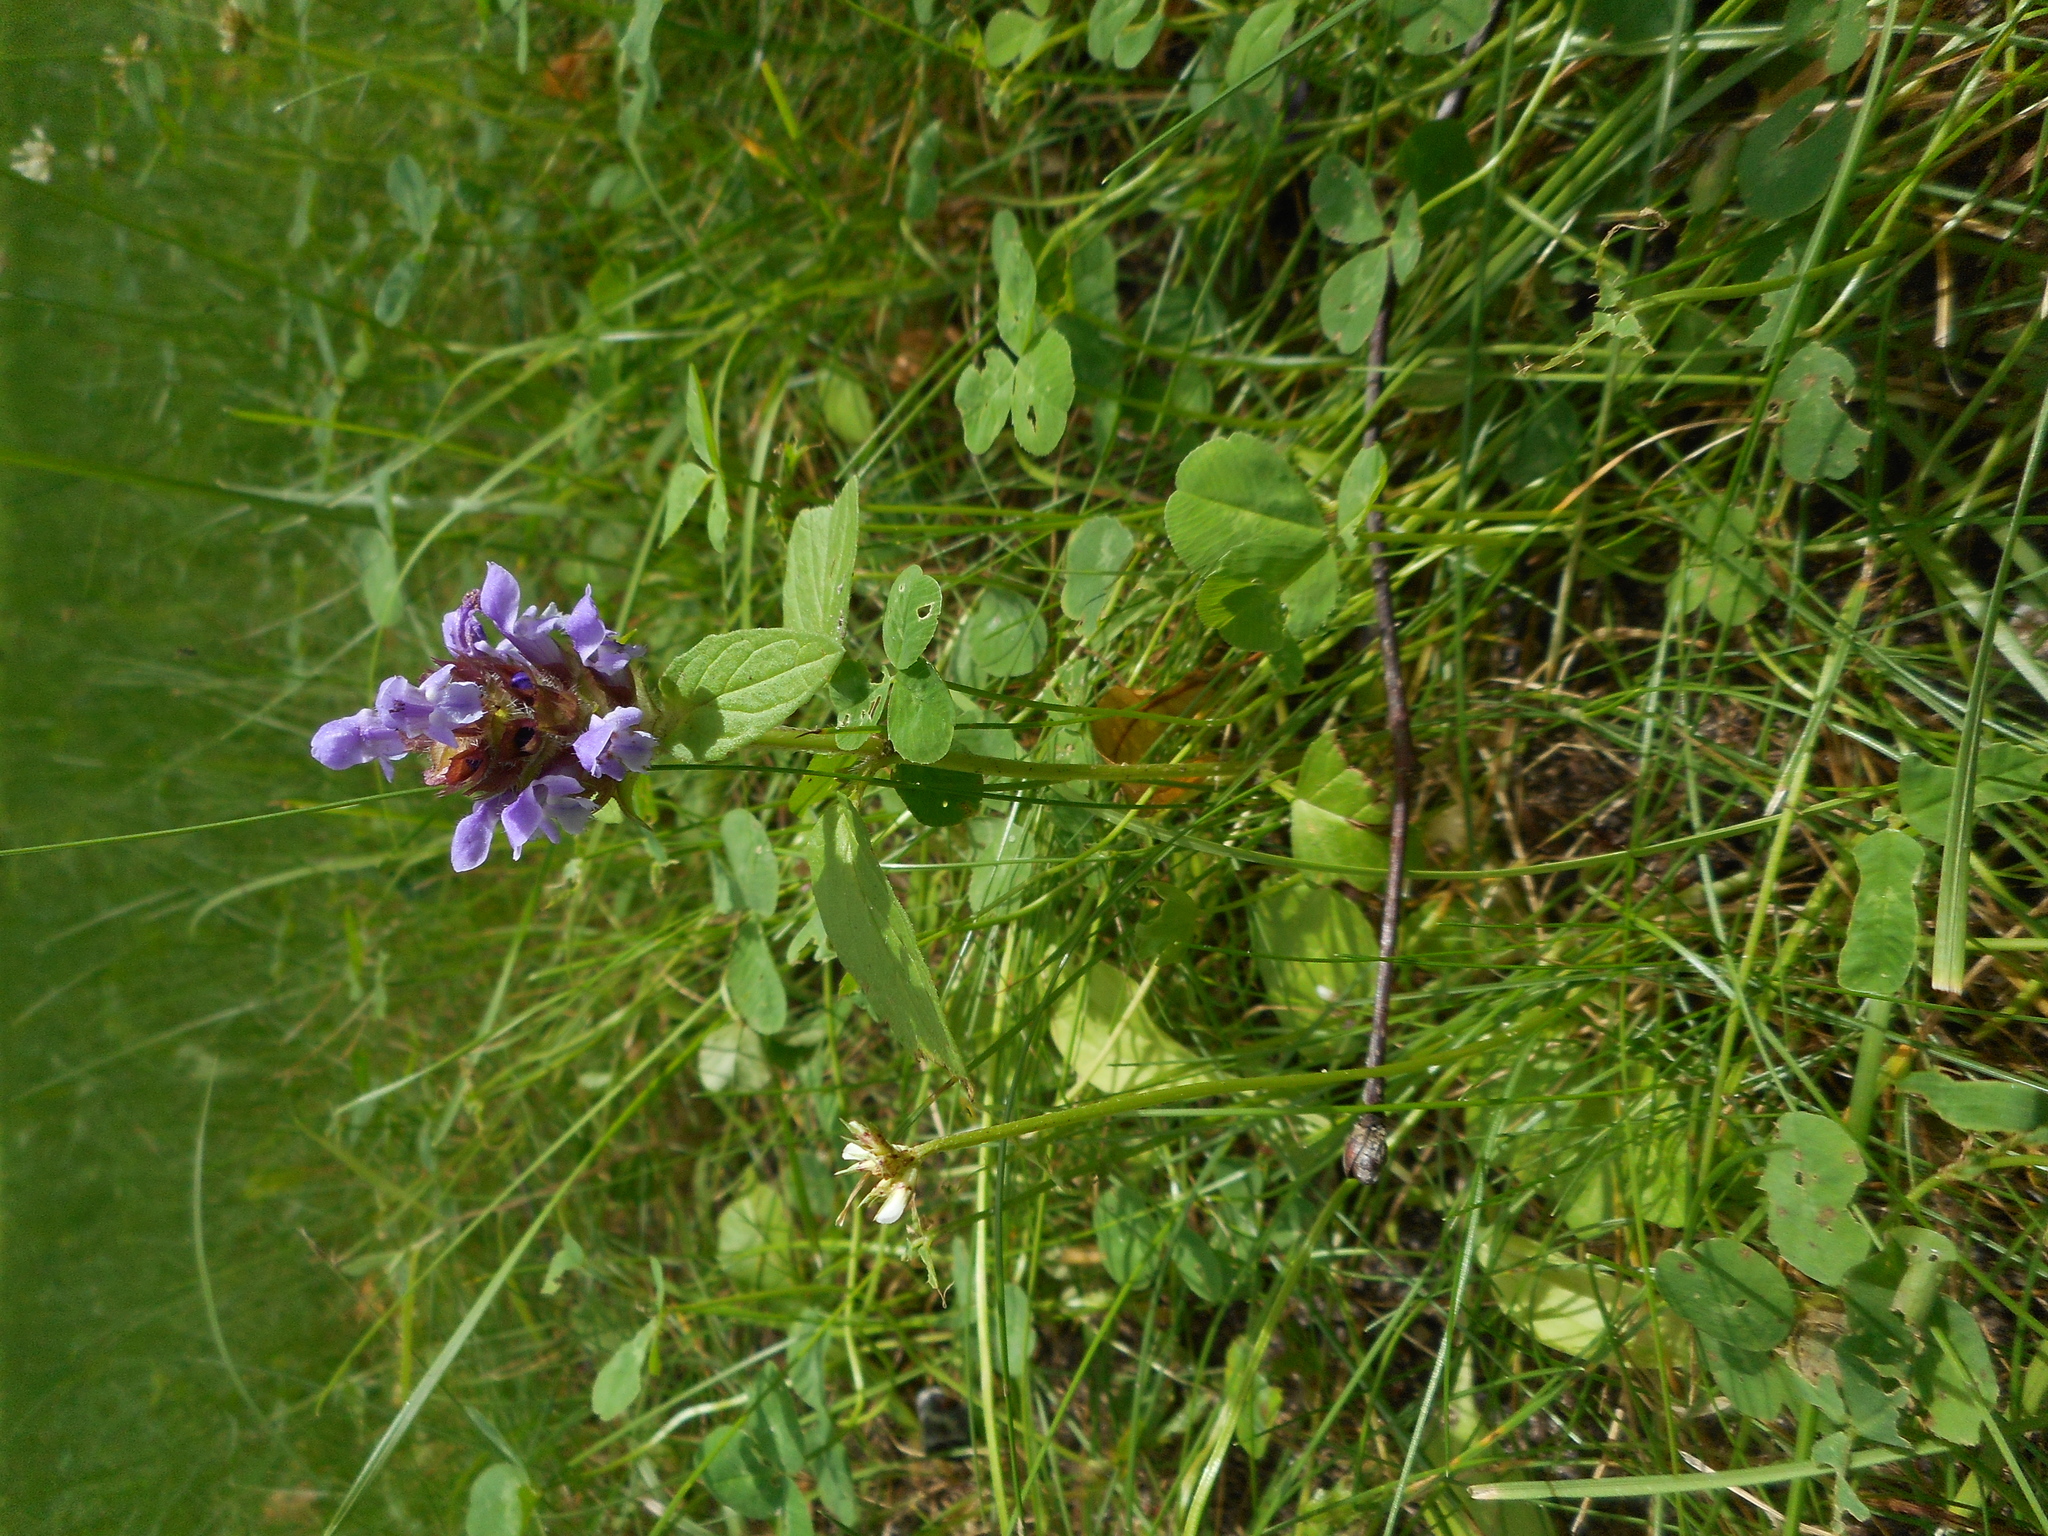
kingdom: Plantae
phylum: Tracheophyta
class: Magnoliopsida
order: Lamiales
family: Lamiaceae
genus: Prunella
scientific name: Prunella vulgaris
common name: Heal-all
